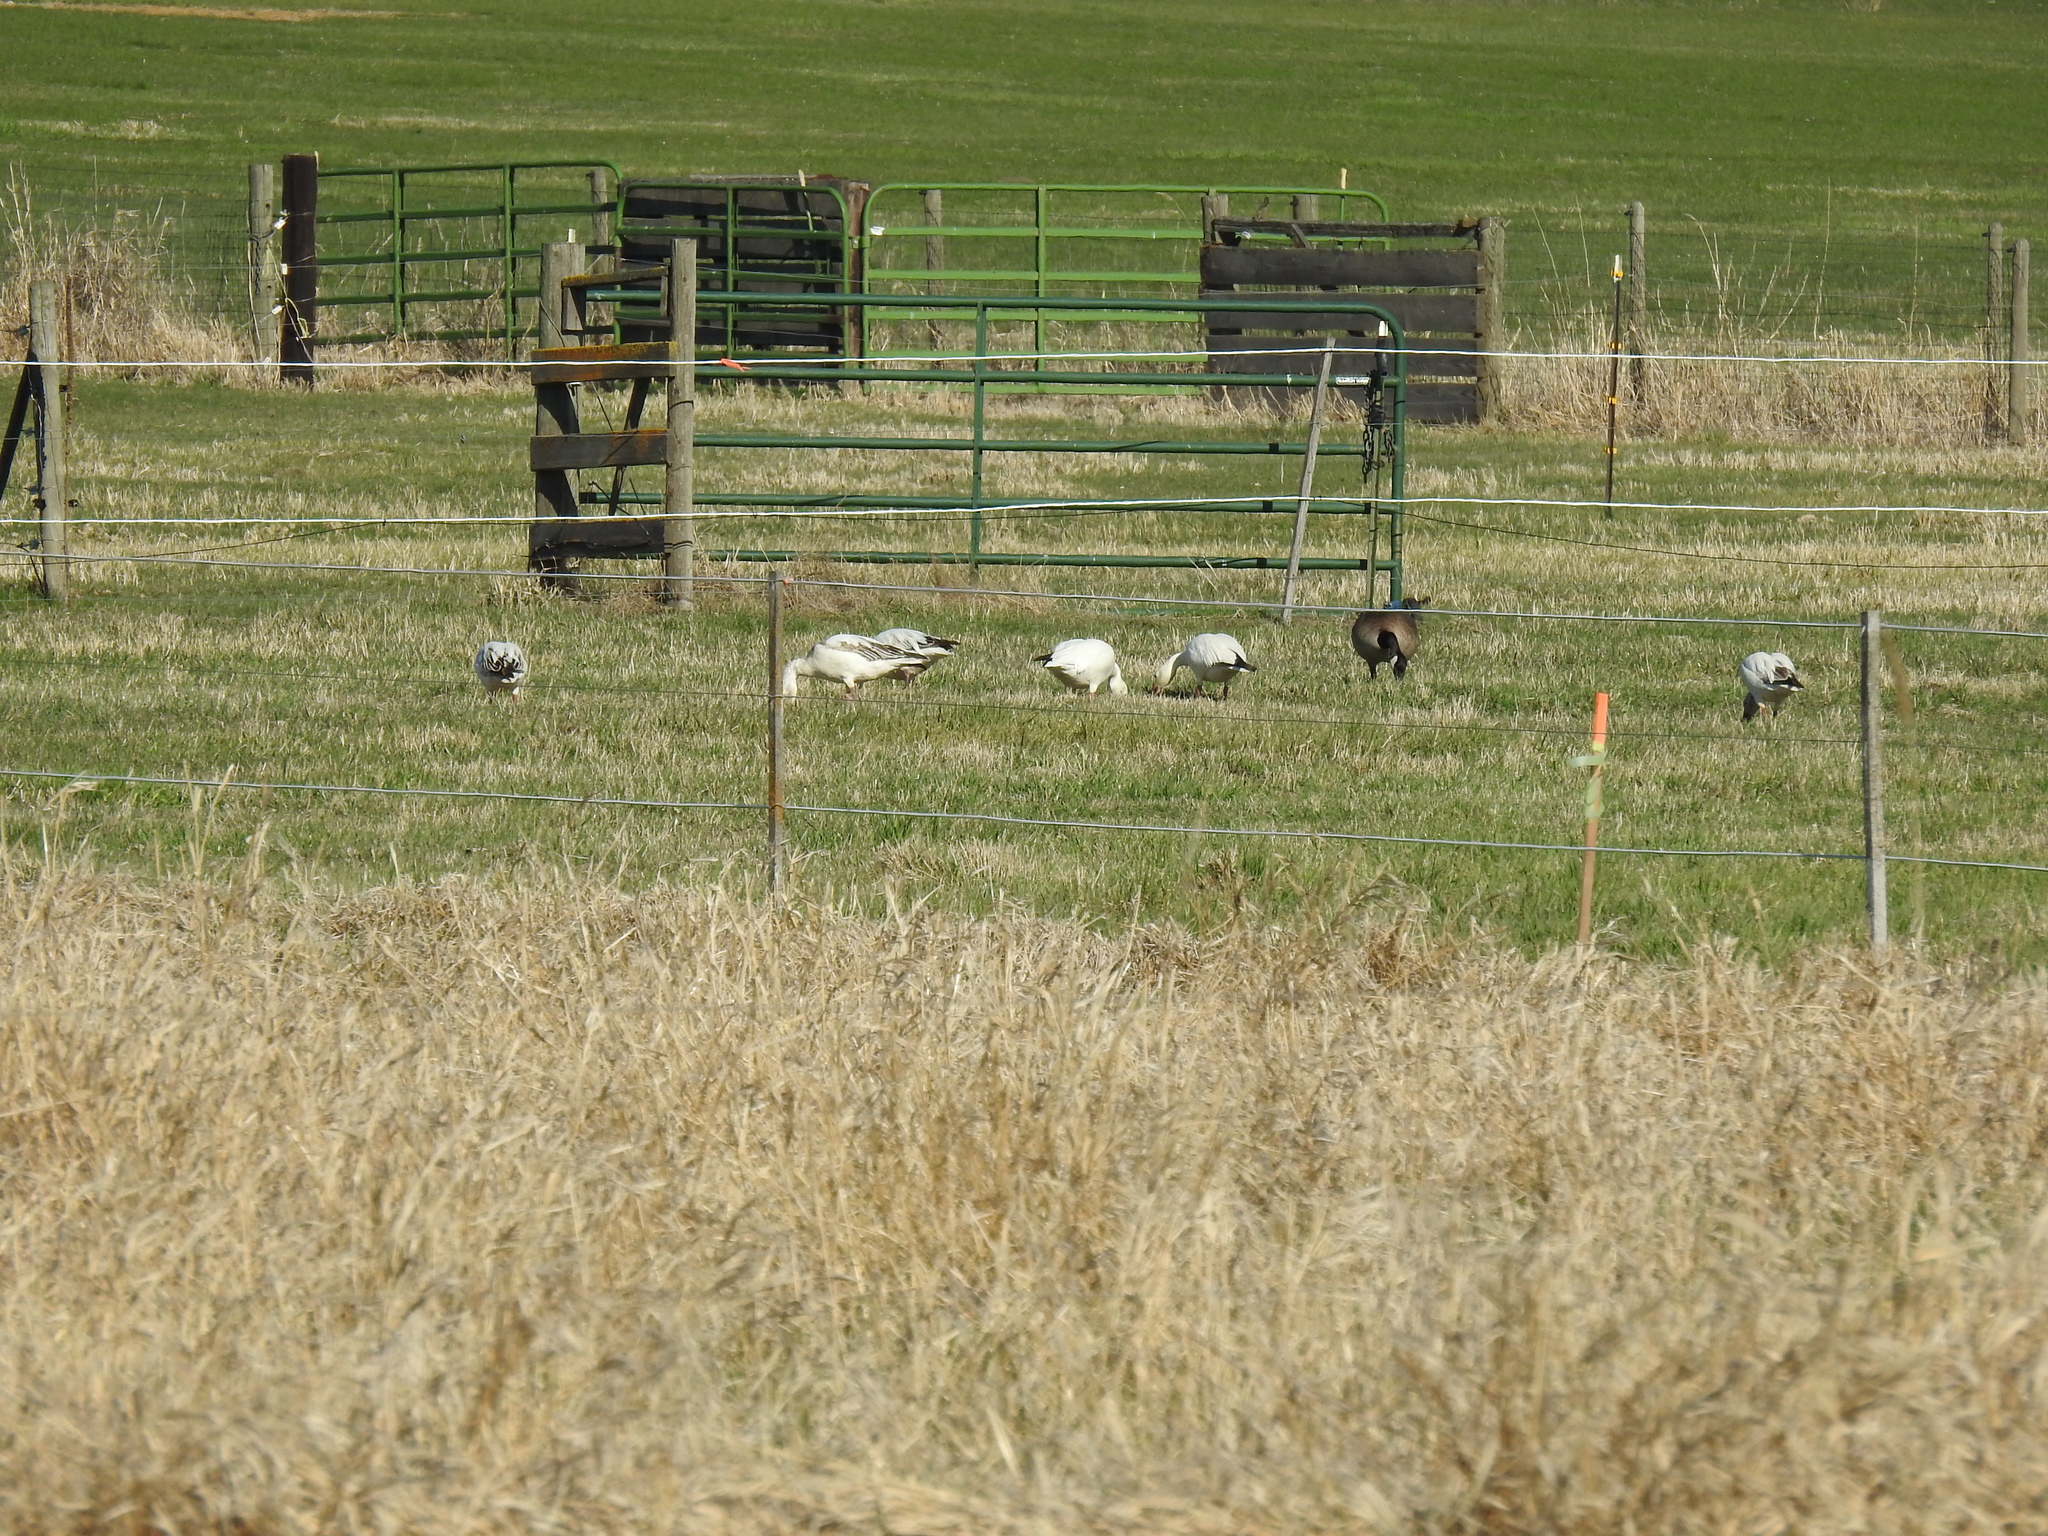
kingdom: Animalia
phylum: Chordata
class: Aves
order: Anseriformes
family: Anatidae
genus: Branta
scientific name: Branta canadensis
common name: Canada goose
